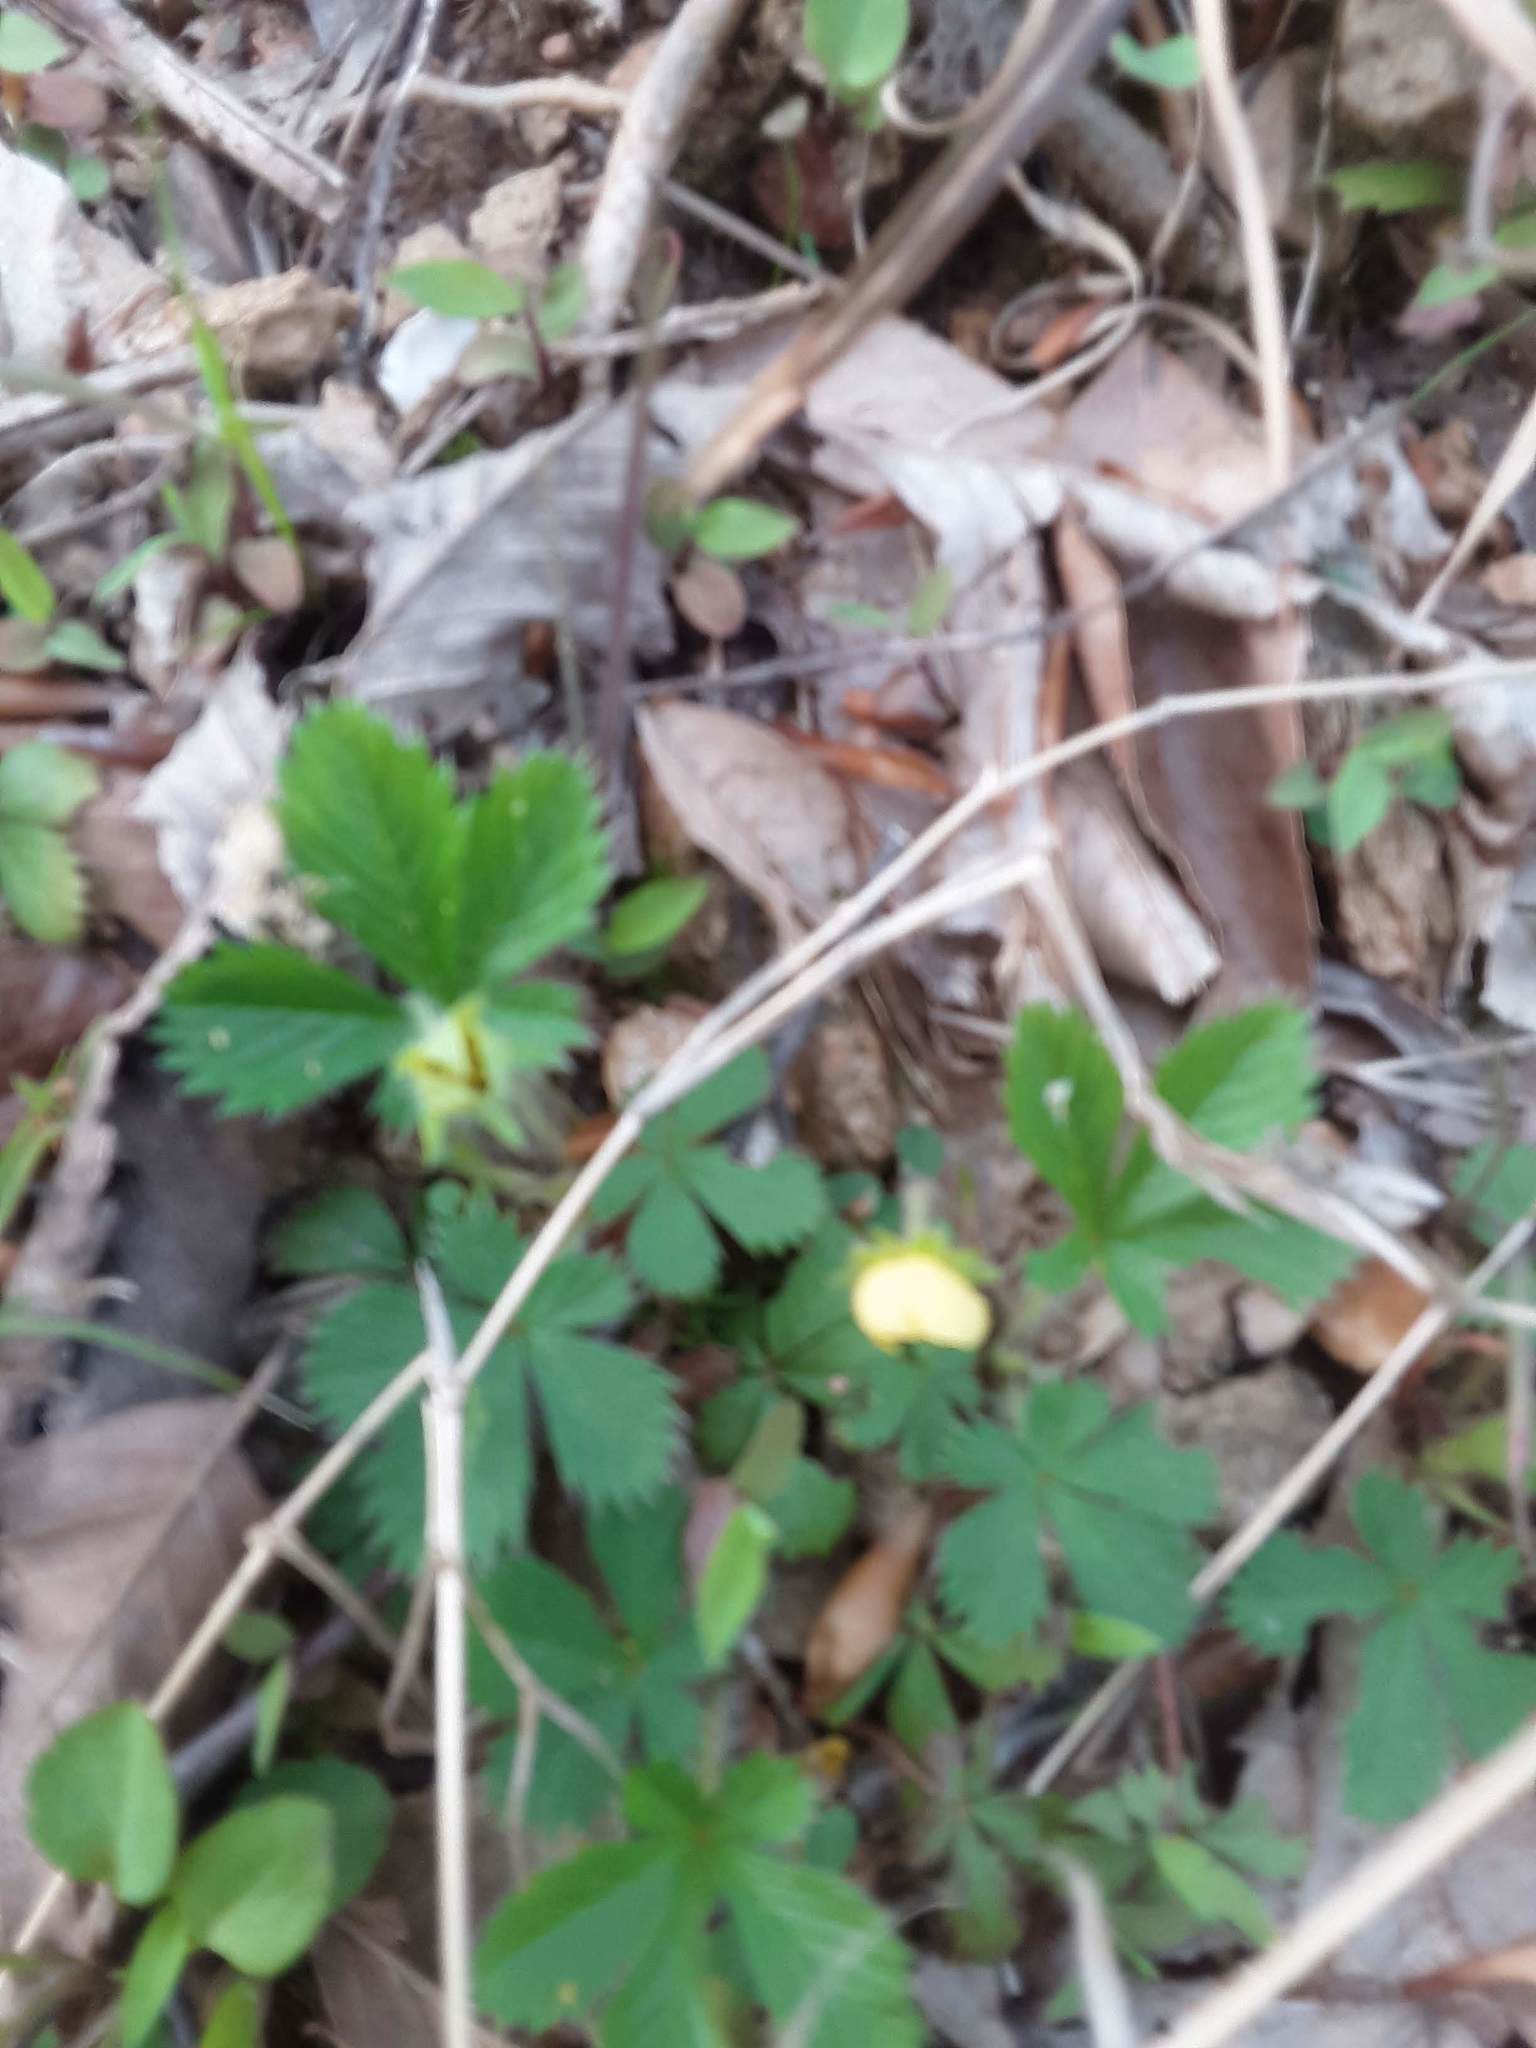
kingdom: Plantae
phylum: Tracheophyta
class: Magnoliopsida
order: Rosales
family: Rosaceae
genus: Potentilla
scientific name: Potentilla canadensis
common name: Canada cinquefoil
